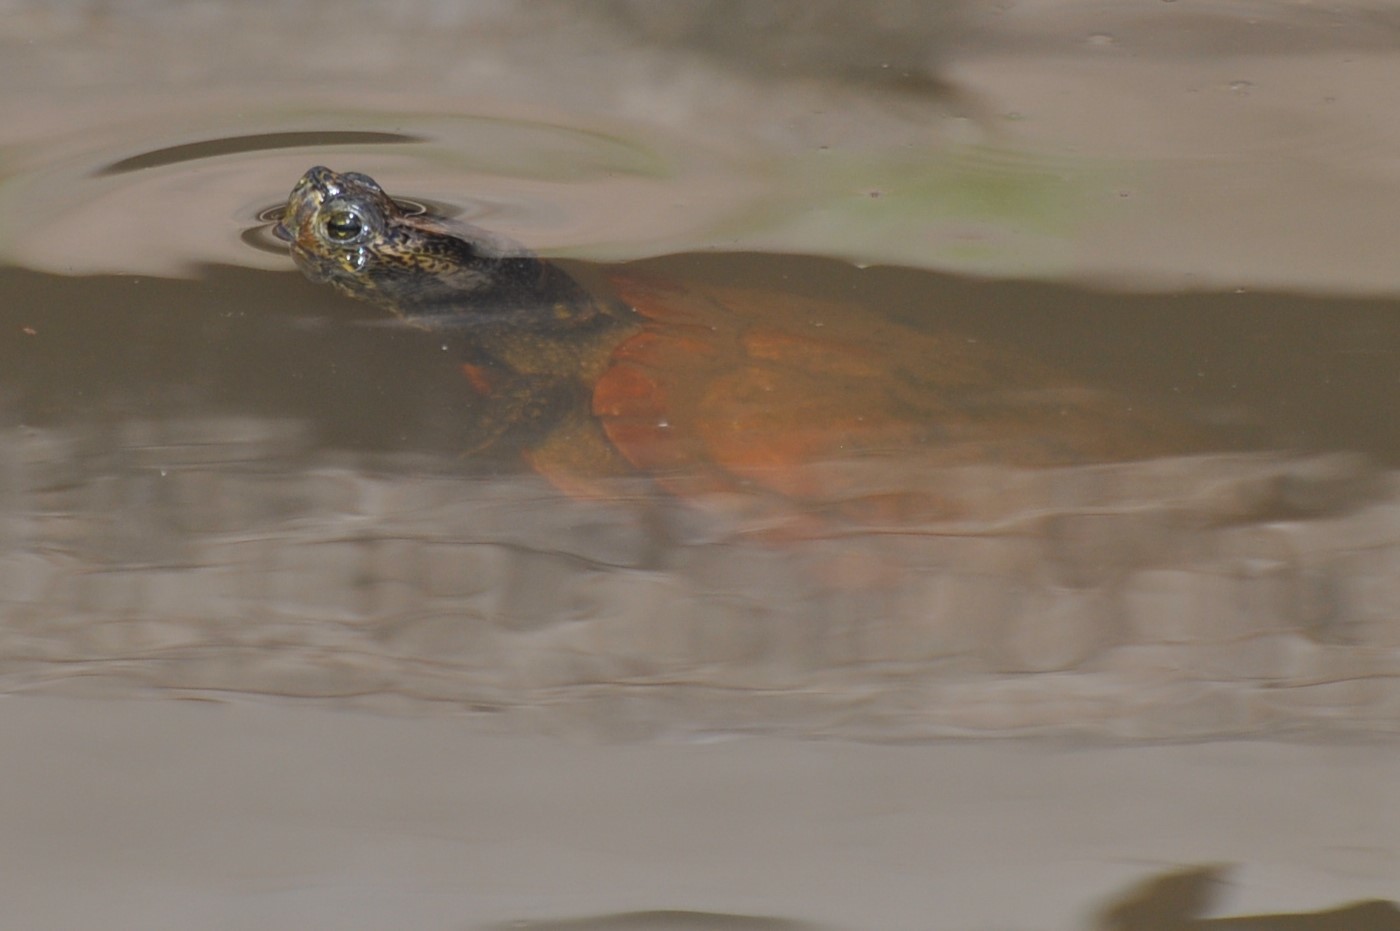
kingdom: Animalia
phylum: Chordata
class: Testudines
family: Emydidae
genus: Trachemys
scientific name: Trachemys scripta
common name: Slider
